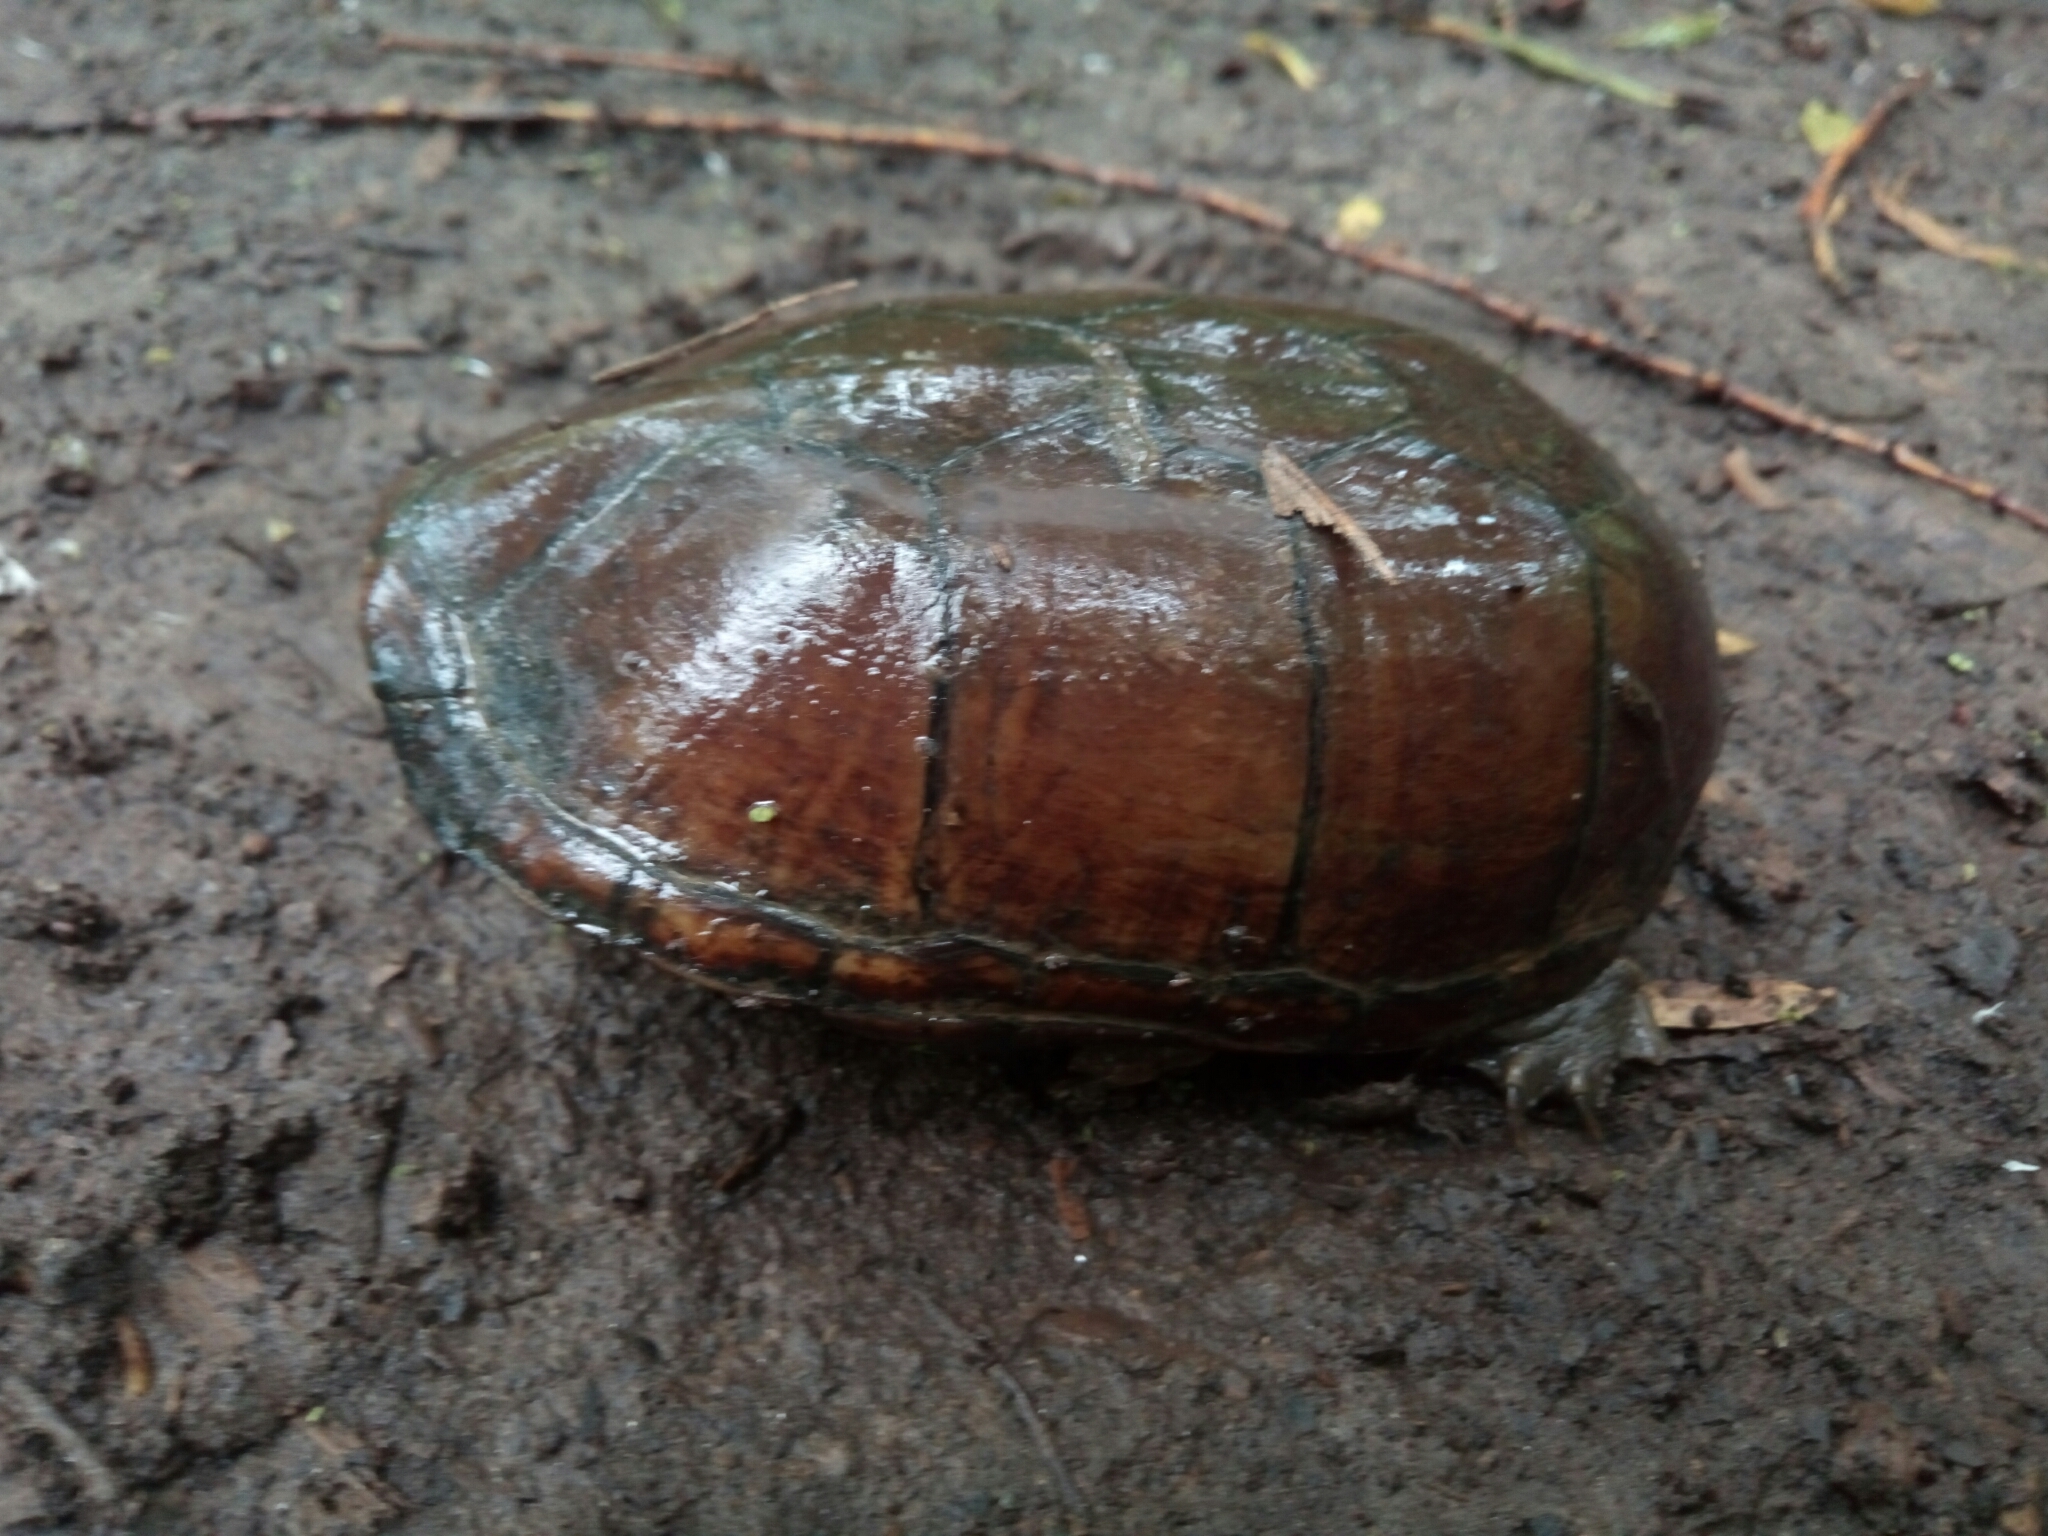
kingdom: Animalia
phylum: Chordata
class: Testudines
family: Kinosternidae
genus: Kinosternon
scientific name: Kinosternon subrubrum
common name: Eastern mud turtle
